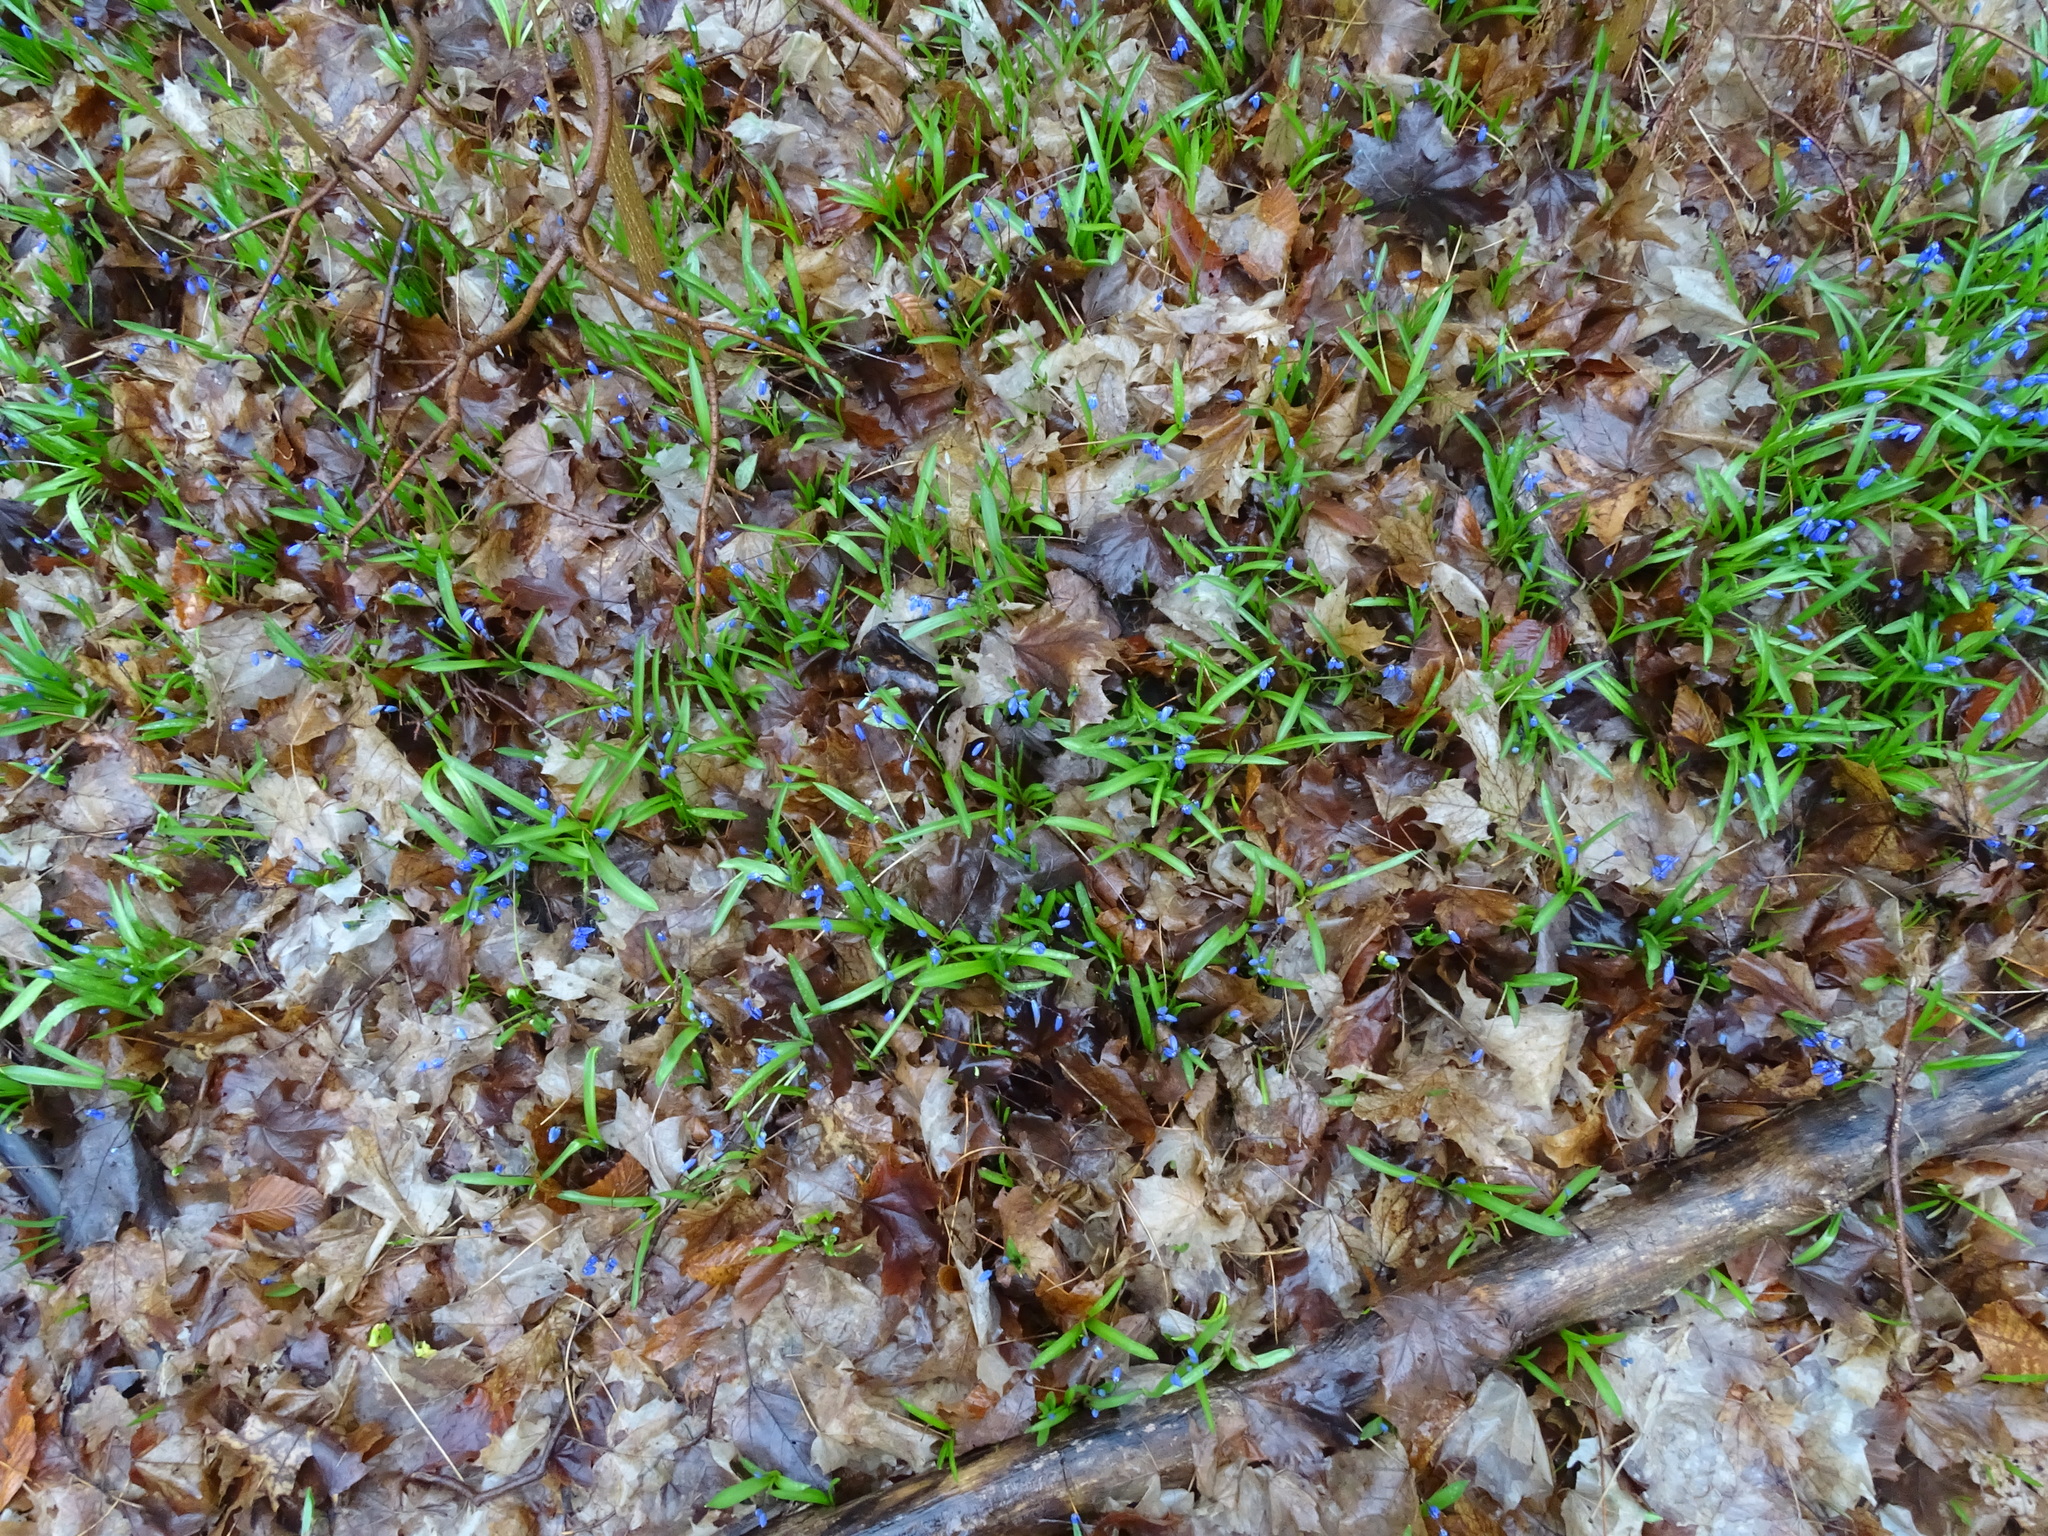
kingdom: Plantae
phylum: Tracheophyta
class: Liliopsida
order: Asparagales
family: Asparagaceae
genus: Scilla
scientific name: Scilla siberica
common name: Siberian squill
